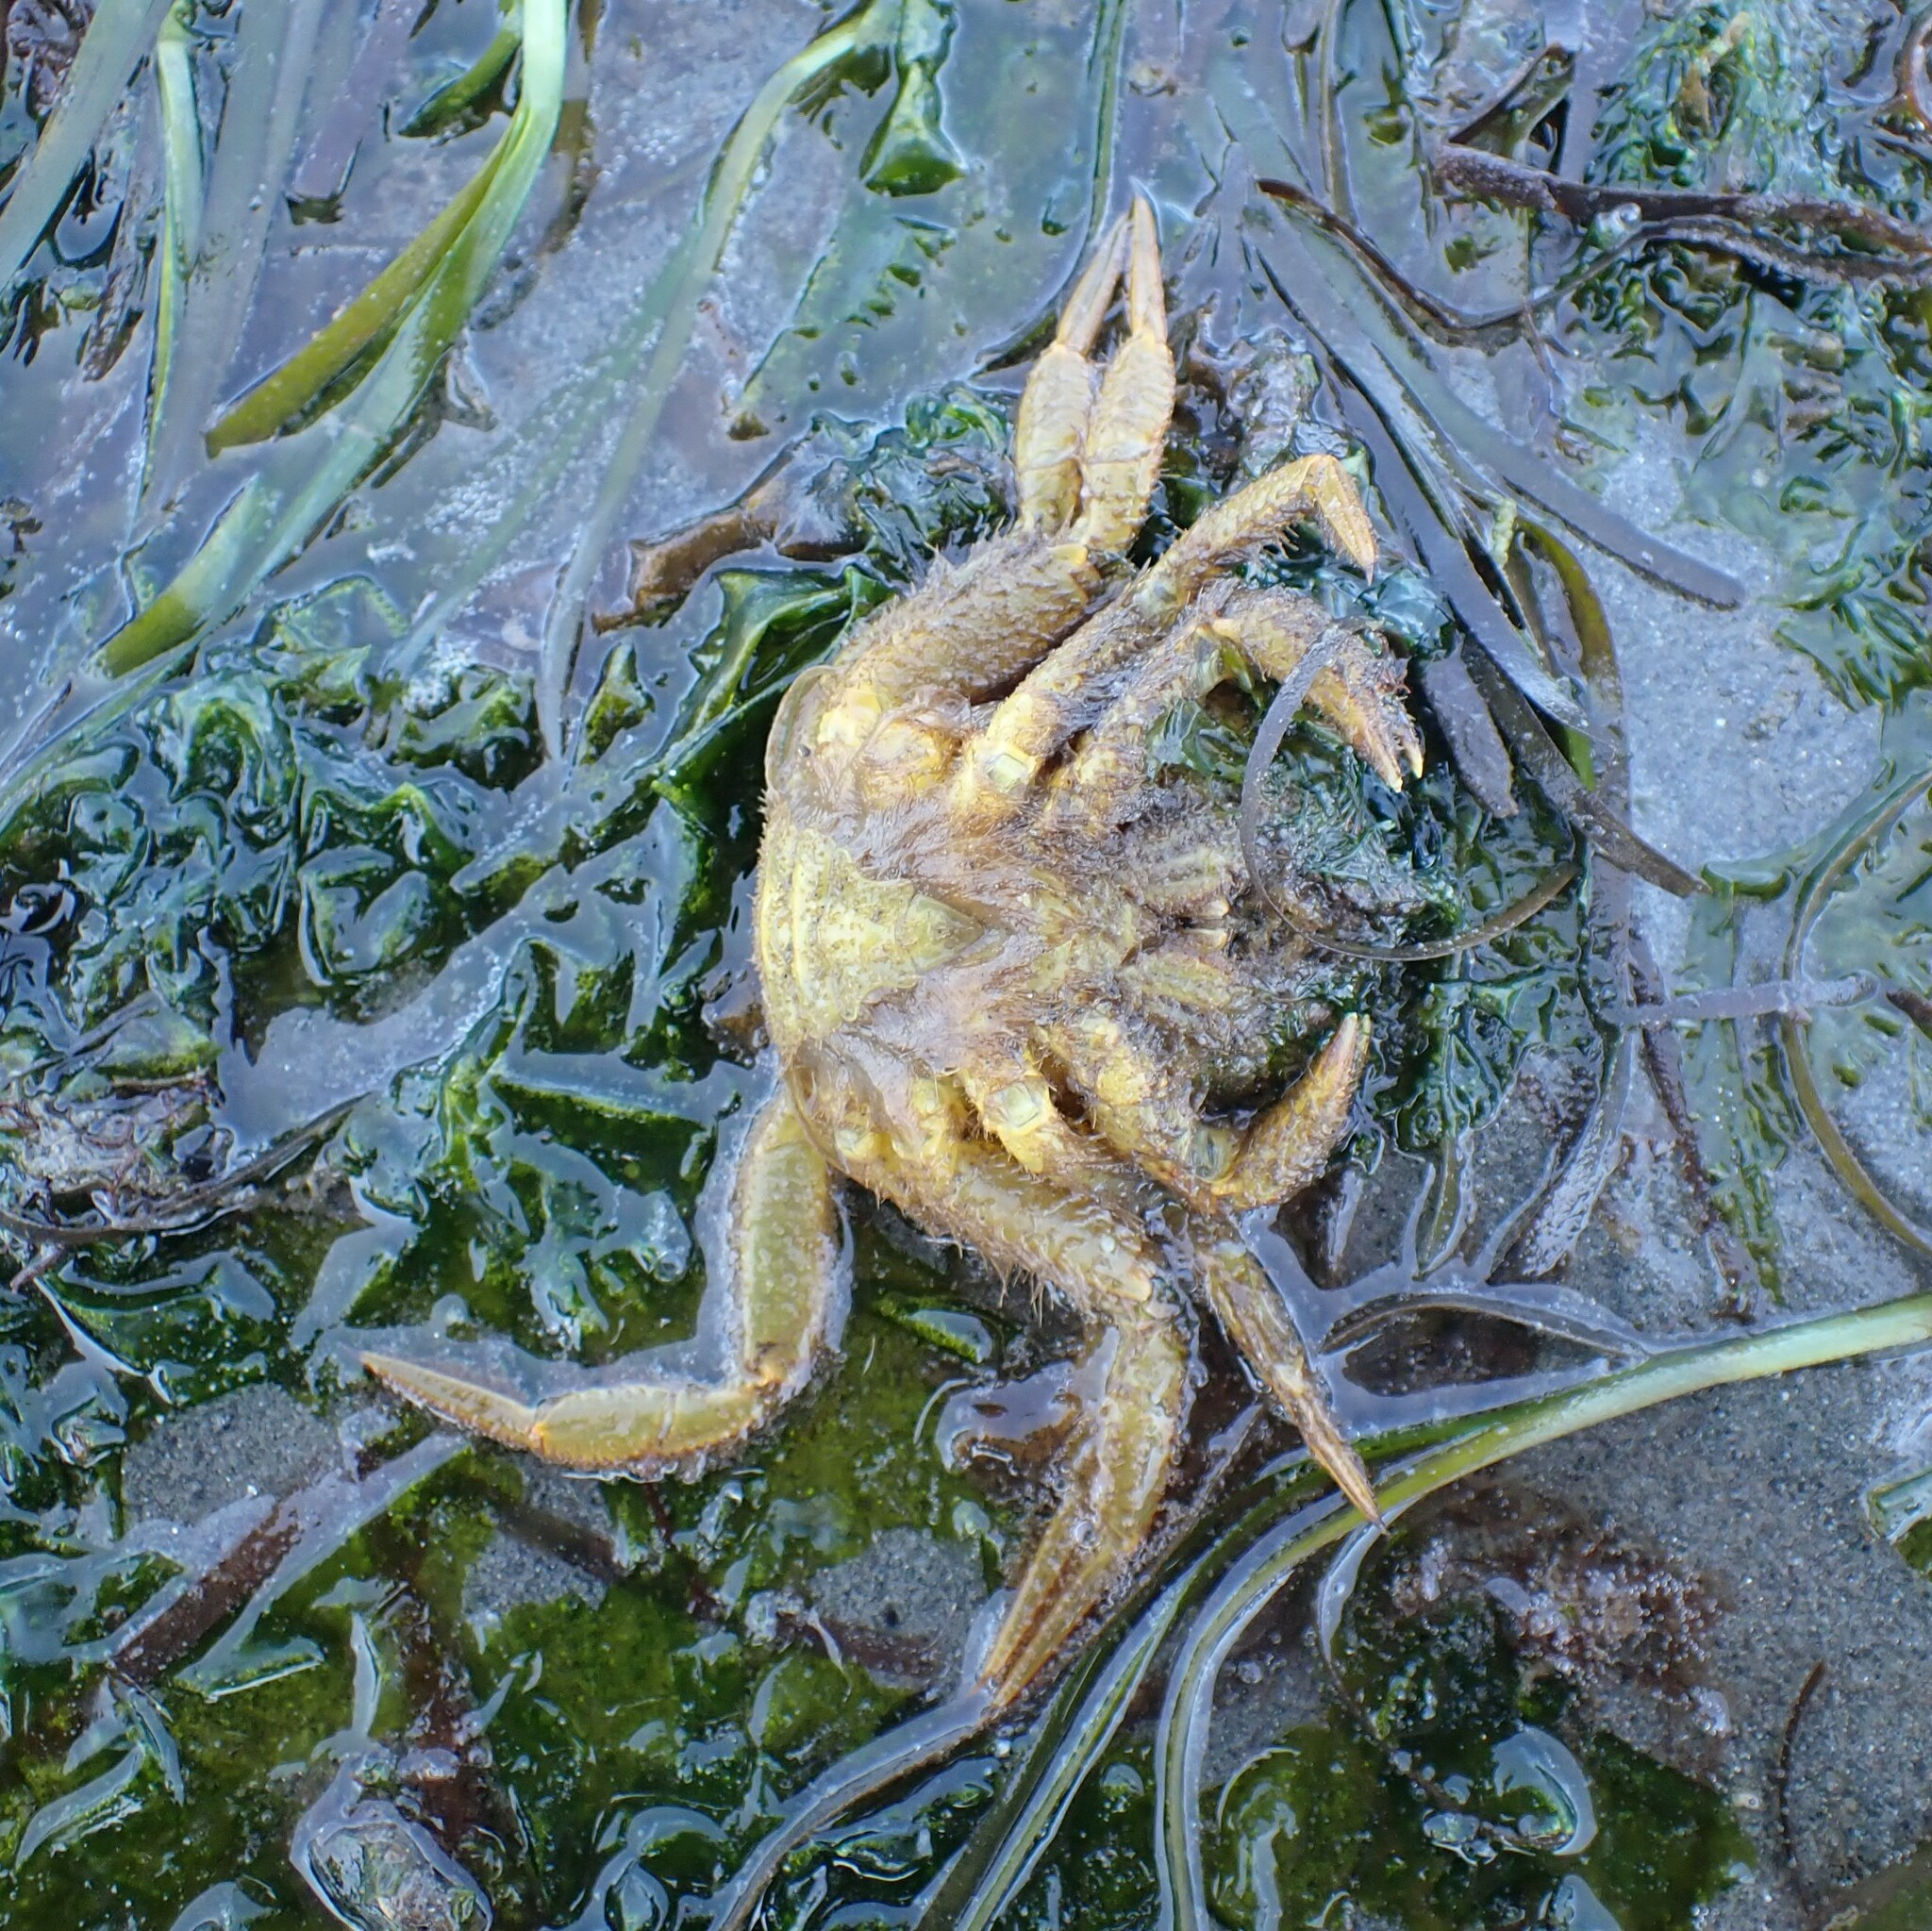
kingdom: Animalia
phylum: Arthropoda
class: Malacostraca
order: Decapoda
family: Cheiragonidae
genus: Telmessus
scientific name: Telmessus cheiragonus
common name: Helmet crab
